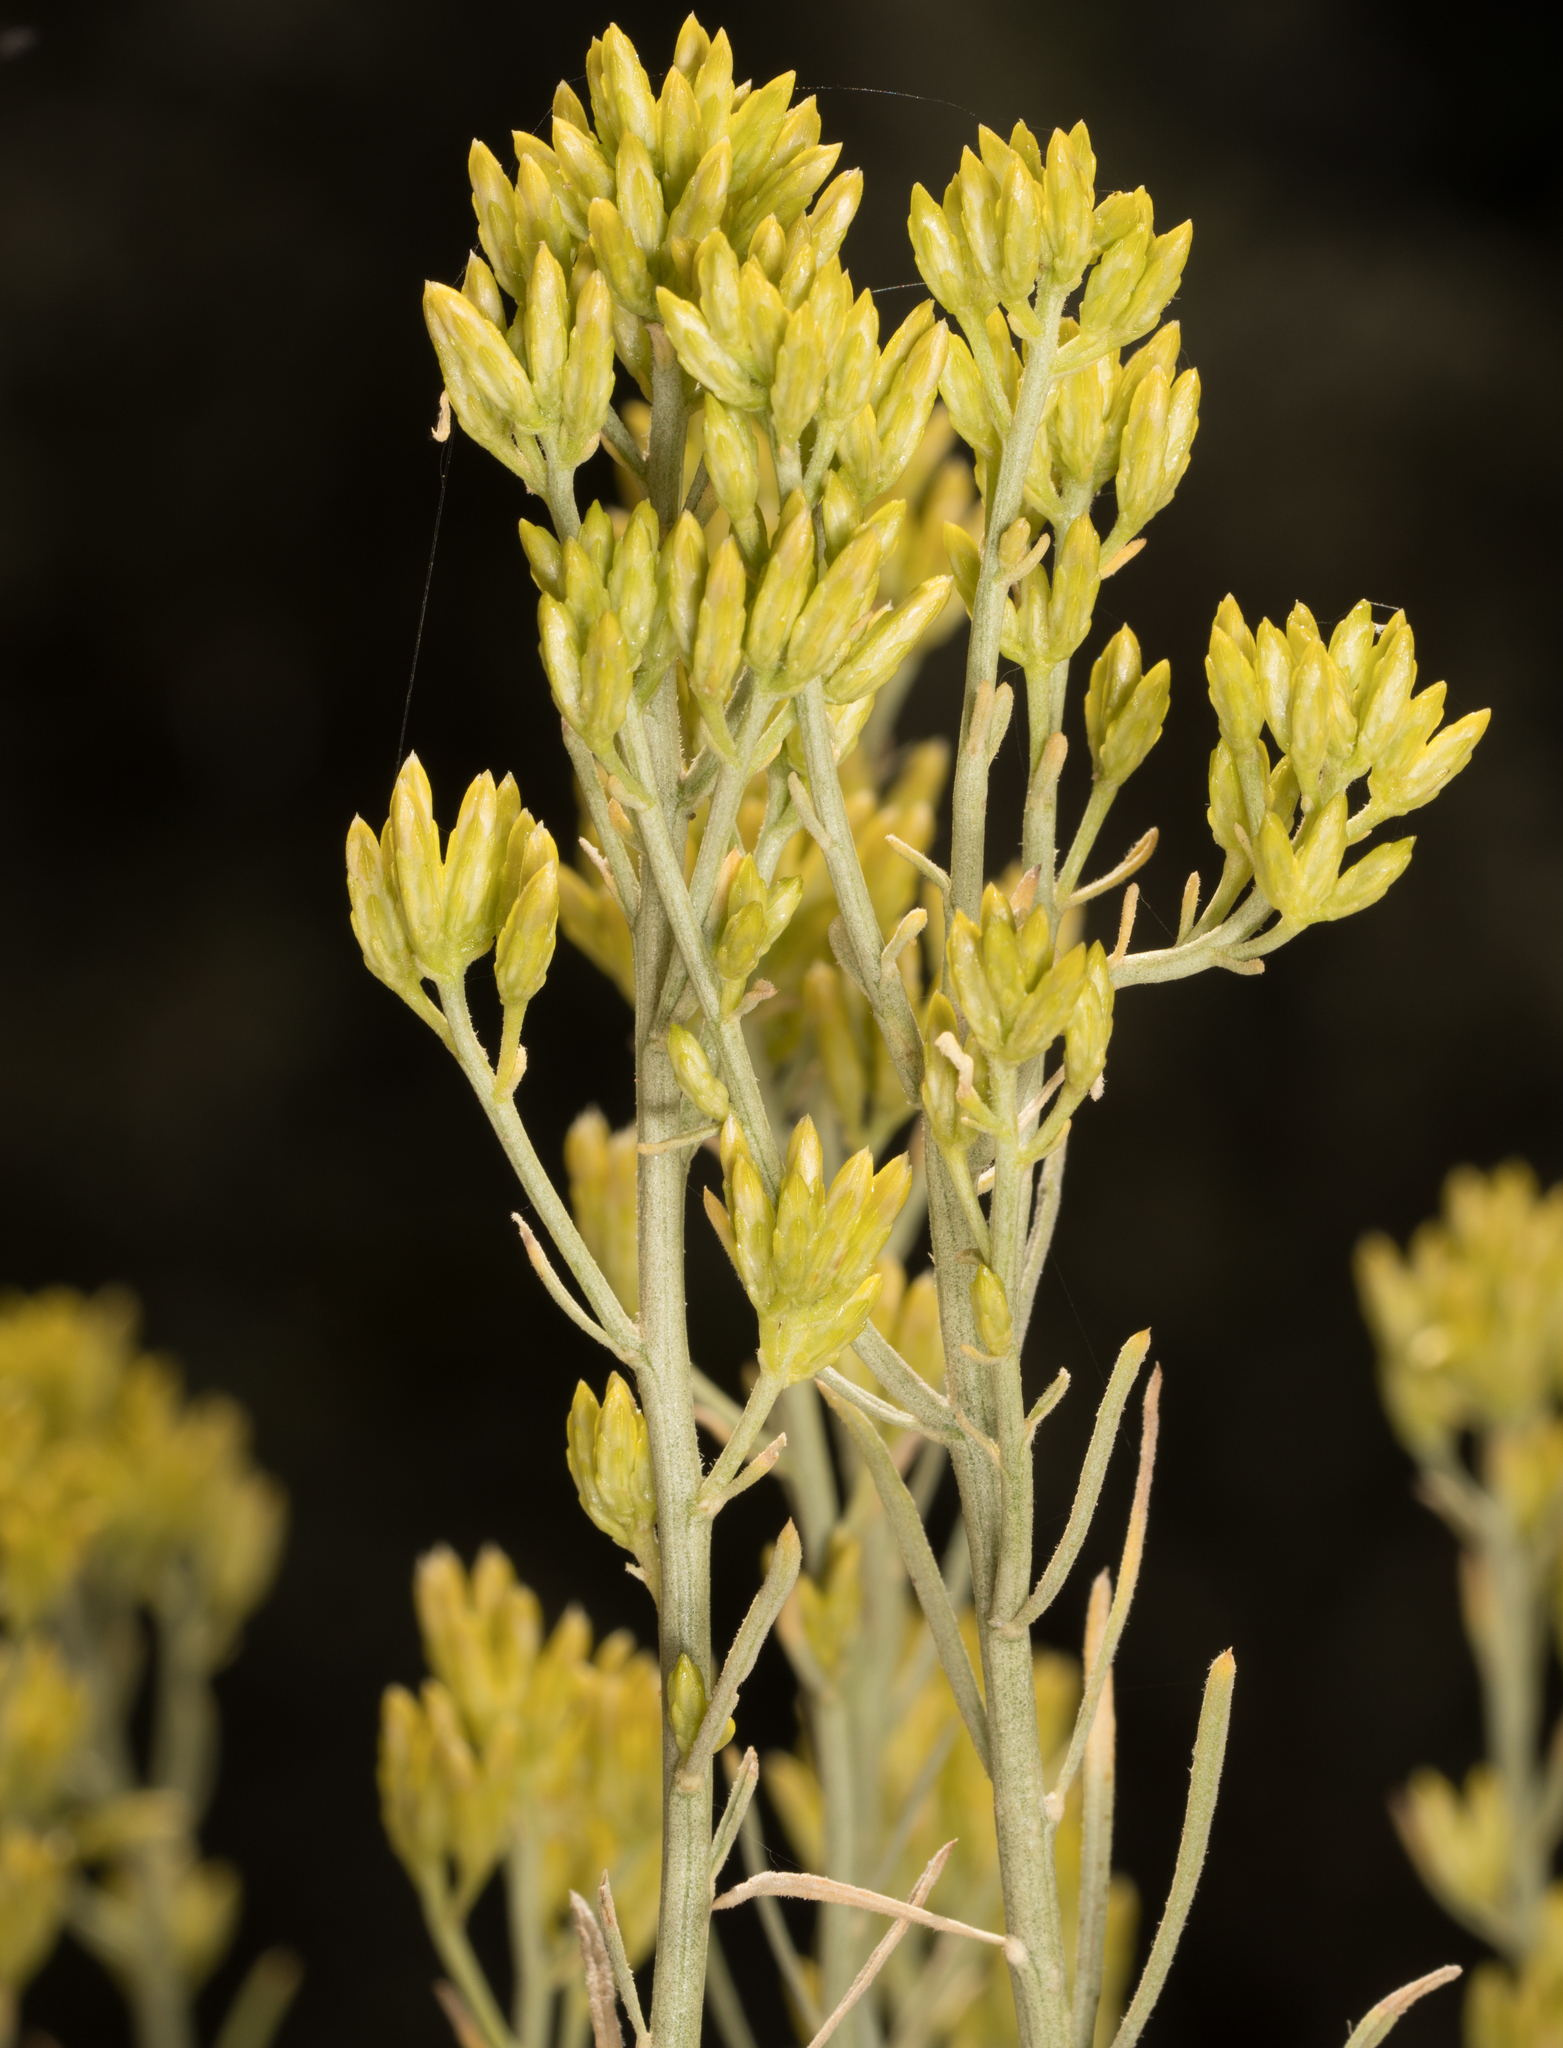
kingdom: Plantae
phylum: Tracheophyta
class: Magnoliopsida
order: Asterales
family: Asteraceae
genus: Ericameria
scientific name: Ericameria nauseosa
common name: Rubber rabbitbrush
